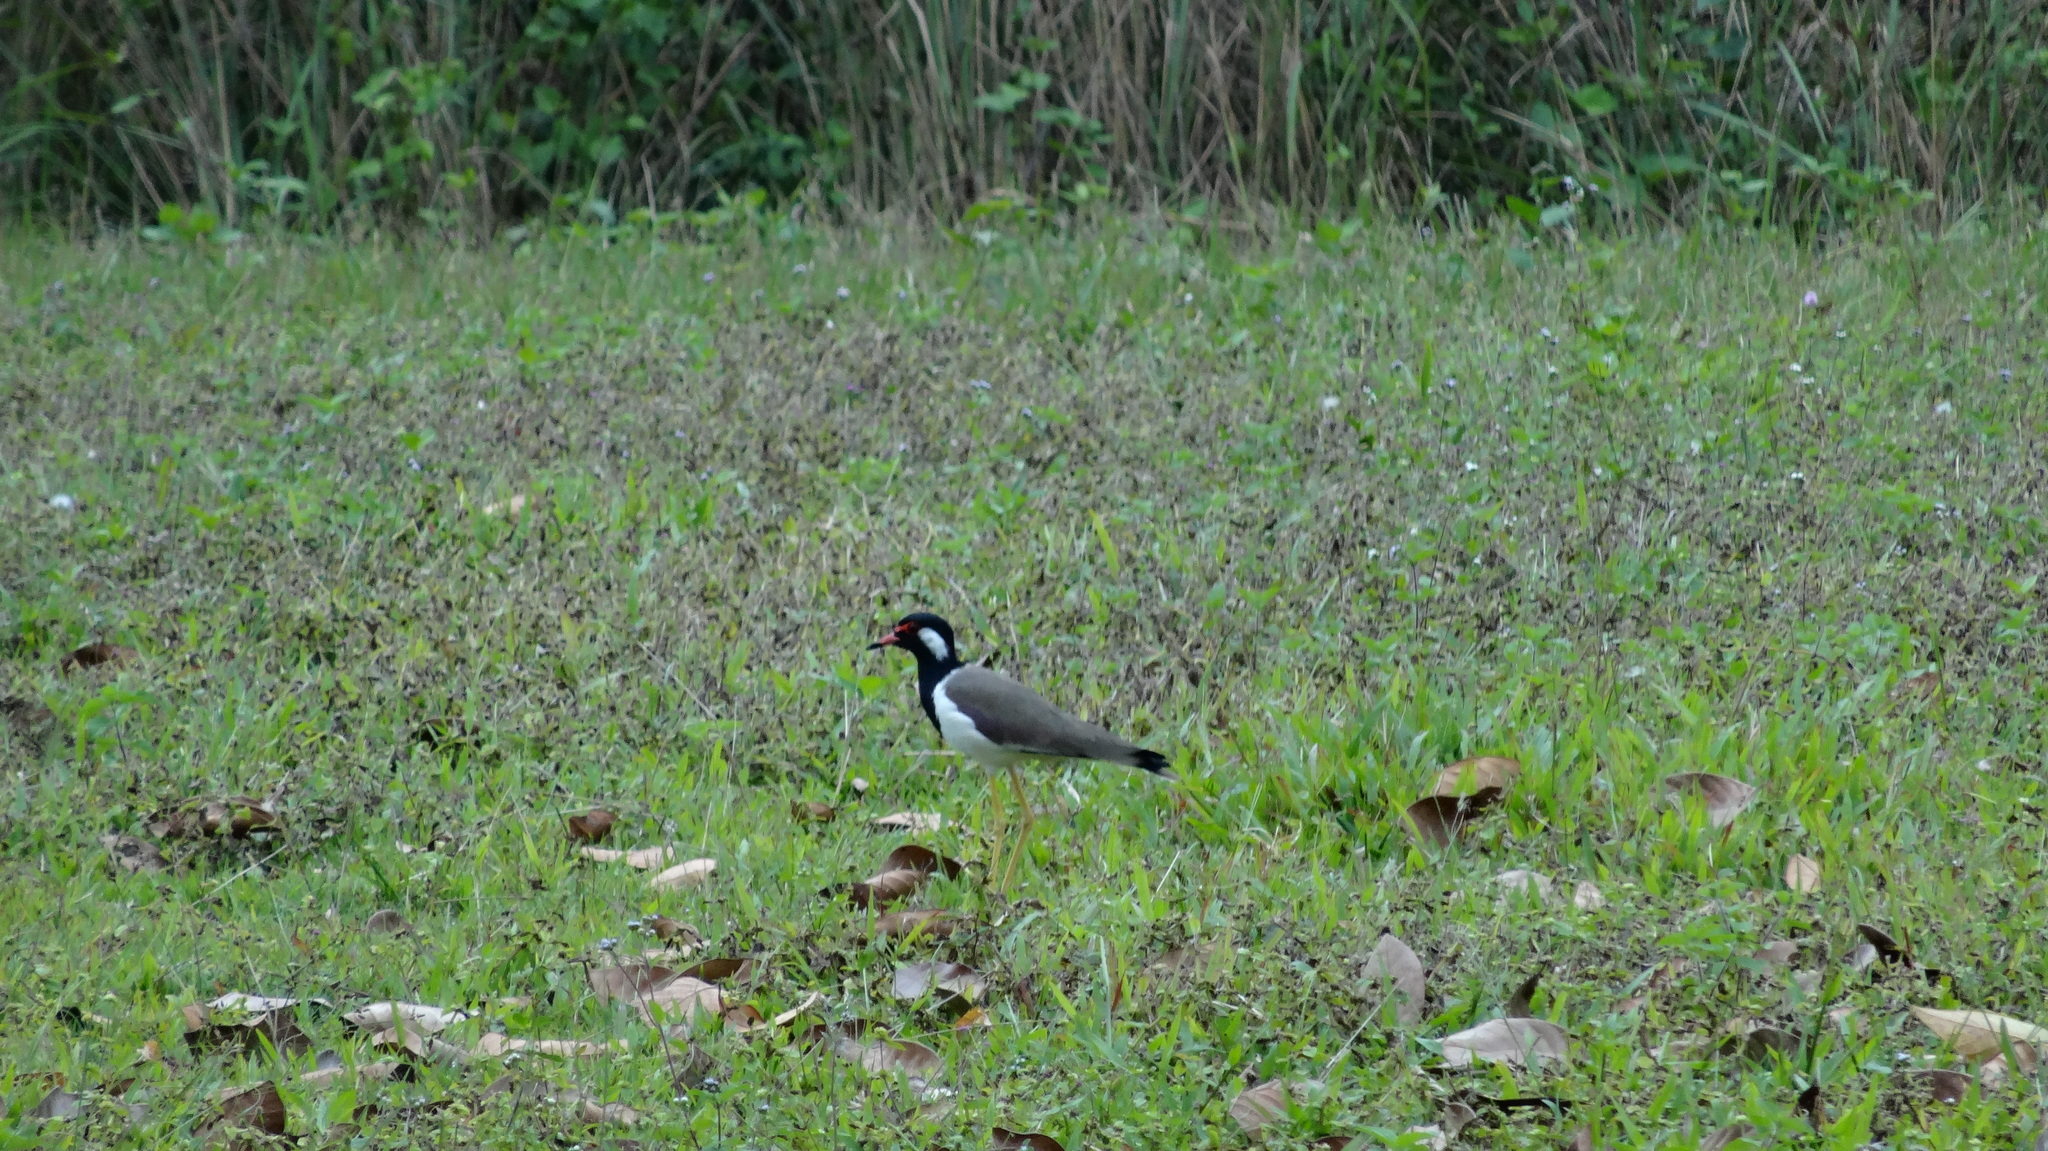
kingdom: Animalia
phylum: Chordata
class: Aves
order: Charadriiformes
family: Charadriidae
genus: Vanellus
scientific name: Vanellus indicus
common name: Red-wattled lapwing
